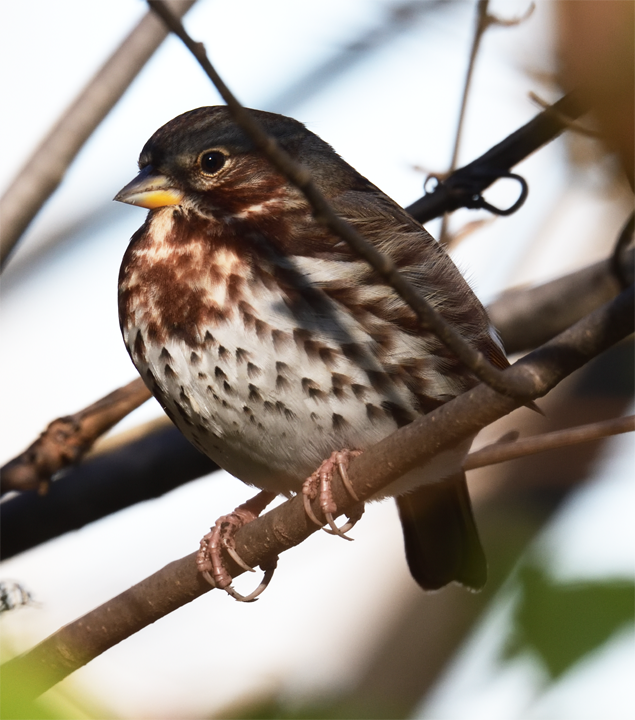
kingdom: Animalia
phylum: Chordata
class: Aves
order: Passeriformes
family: Passerellidae
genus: Passerella
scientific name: Passerella iliaca
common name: Fox sparrow
